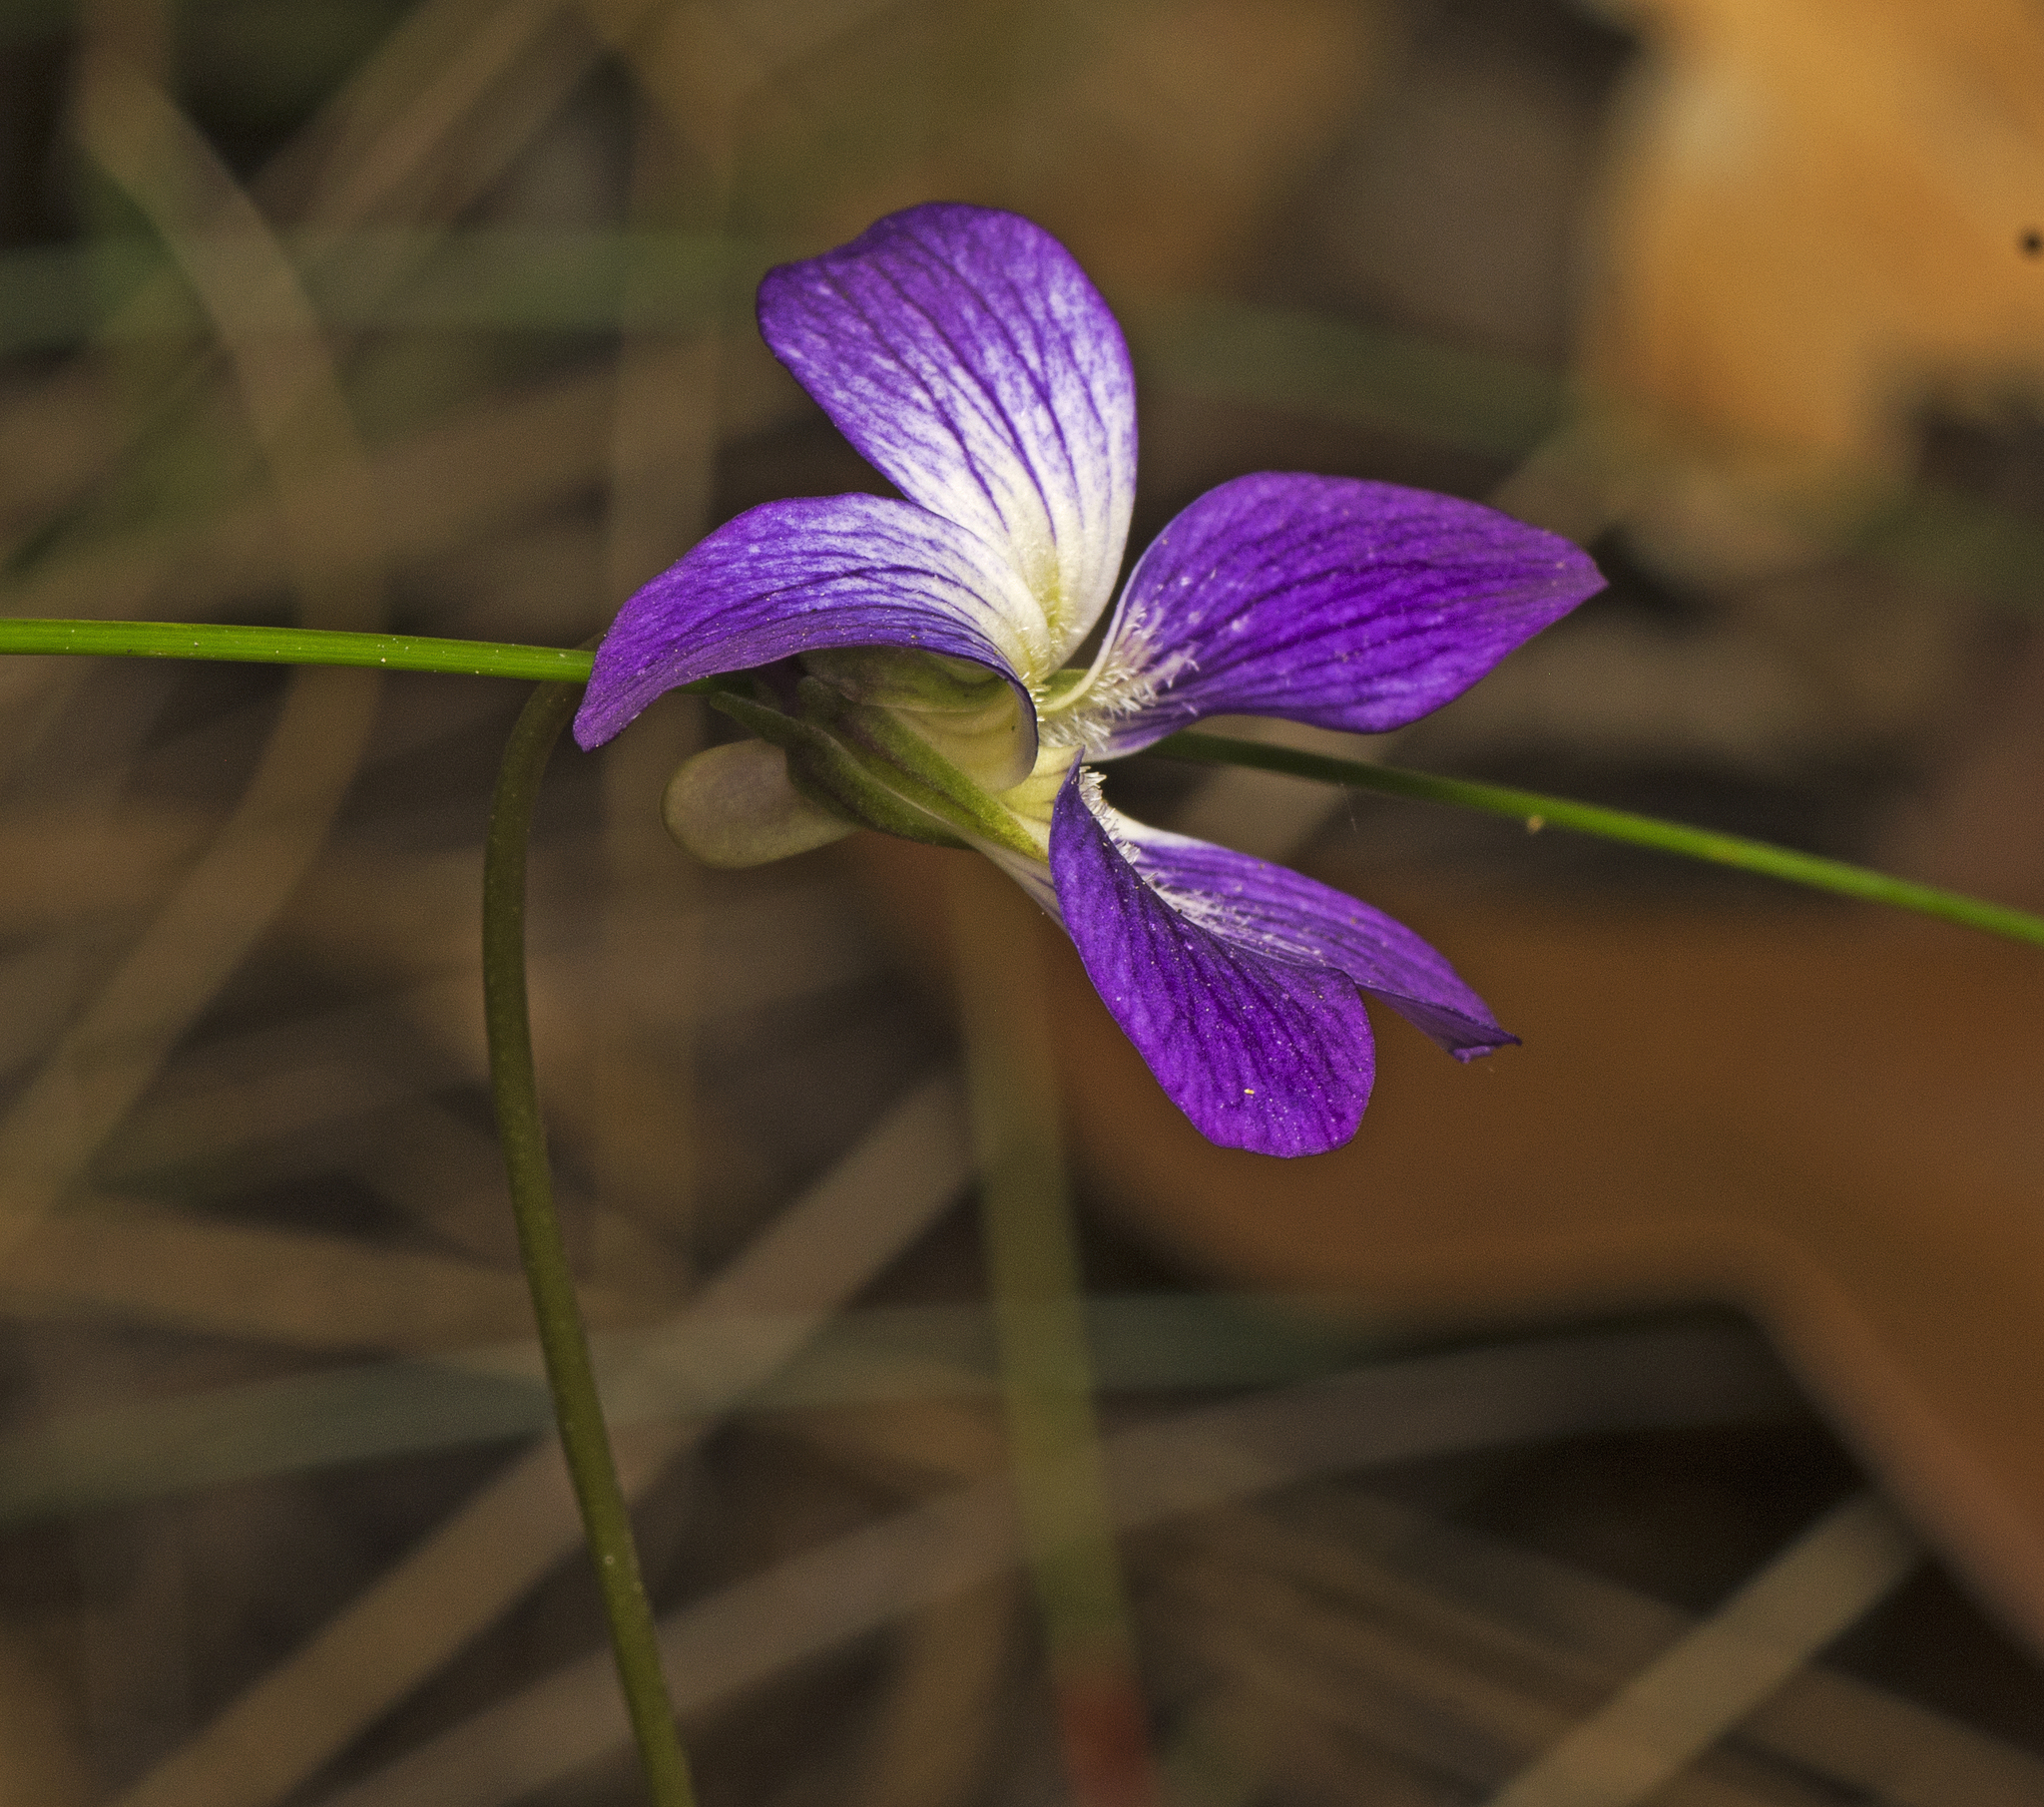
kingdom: Plantae
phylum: Tracheophyta
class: Magnoliopsida
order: Malpighiales
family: Violaceae
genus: Viola
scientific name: Viola betonicifolia
